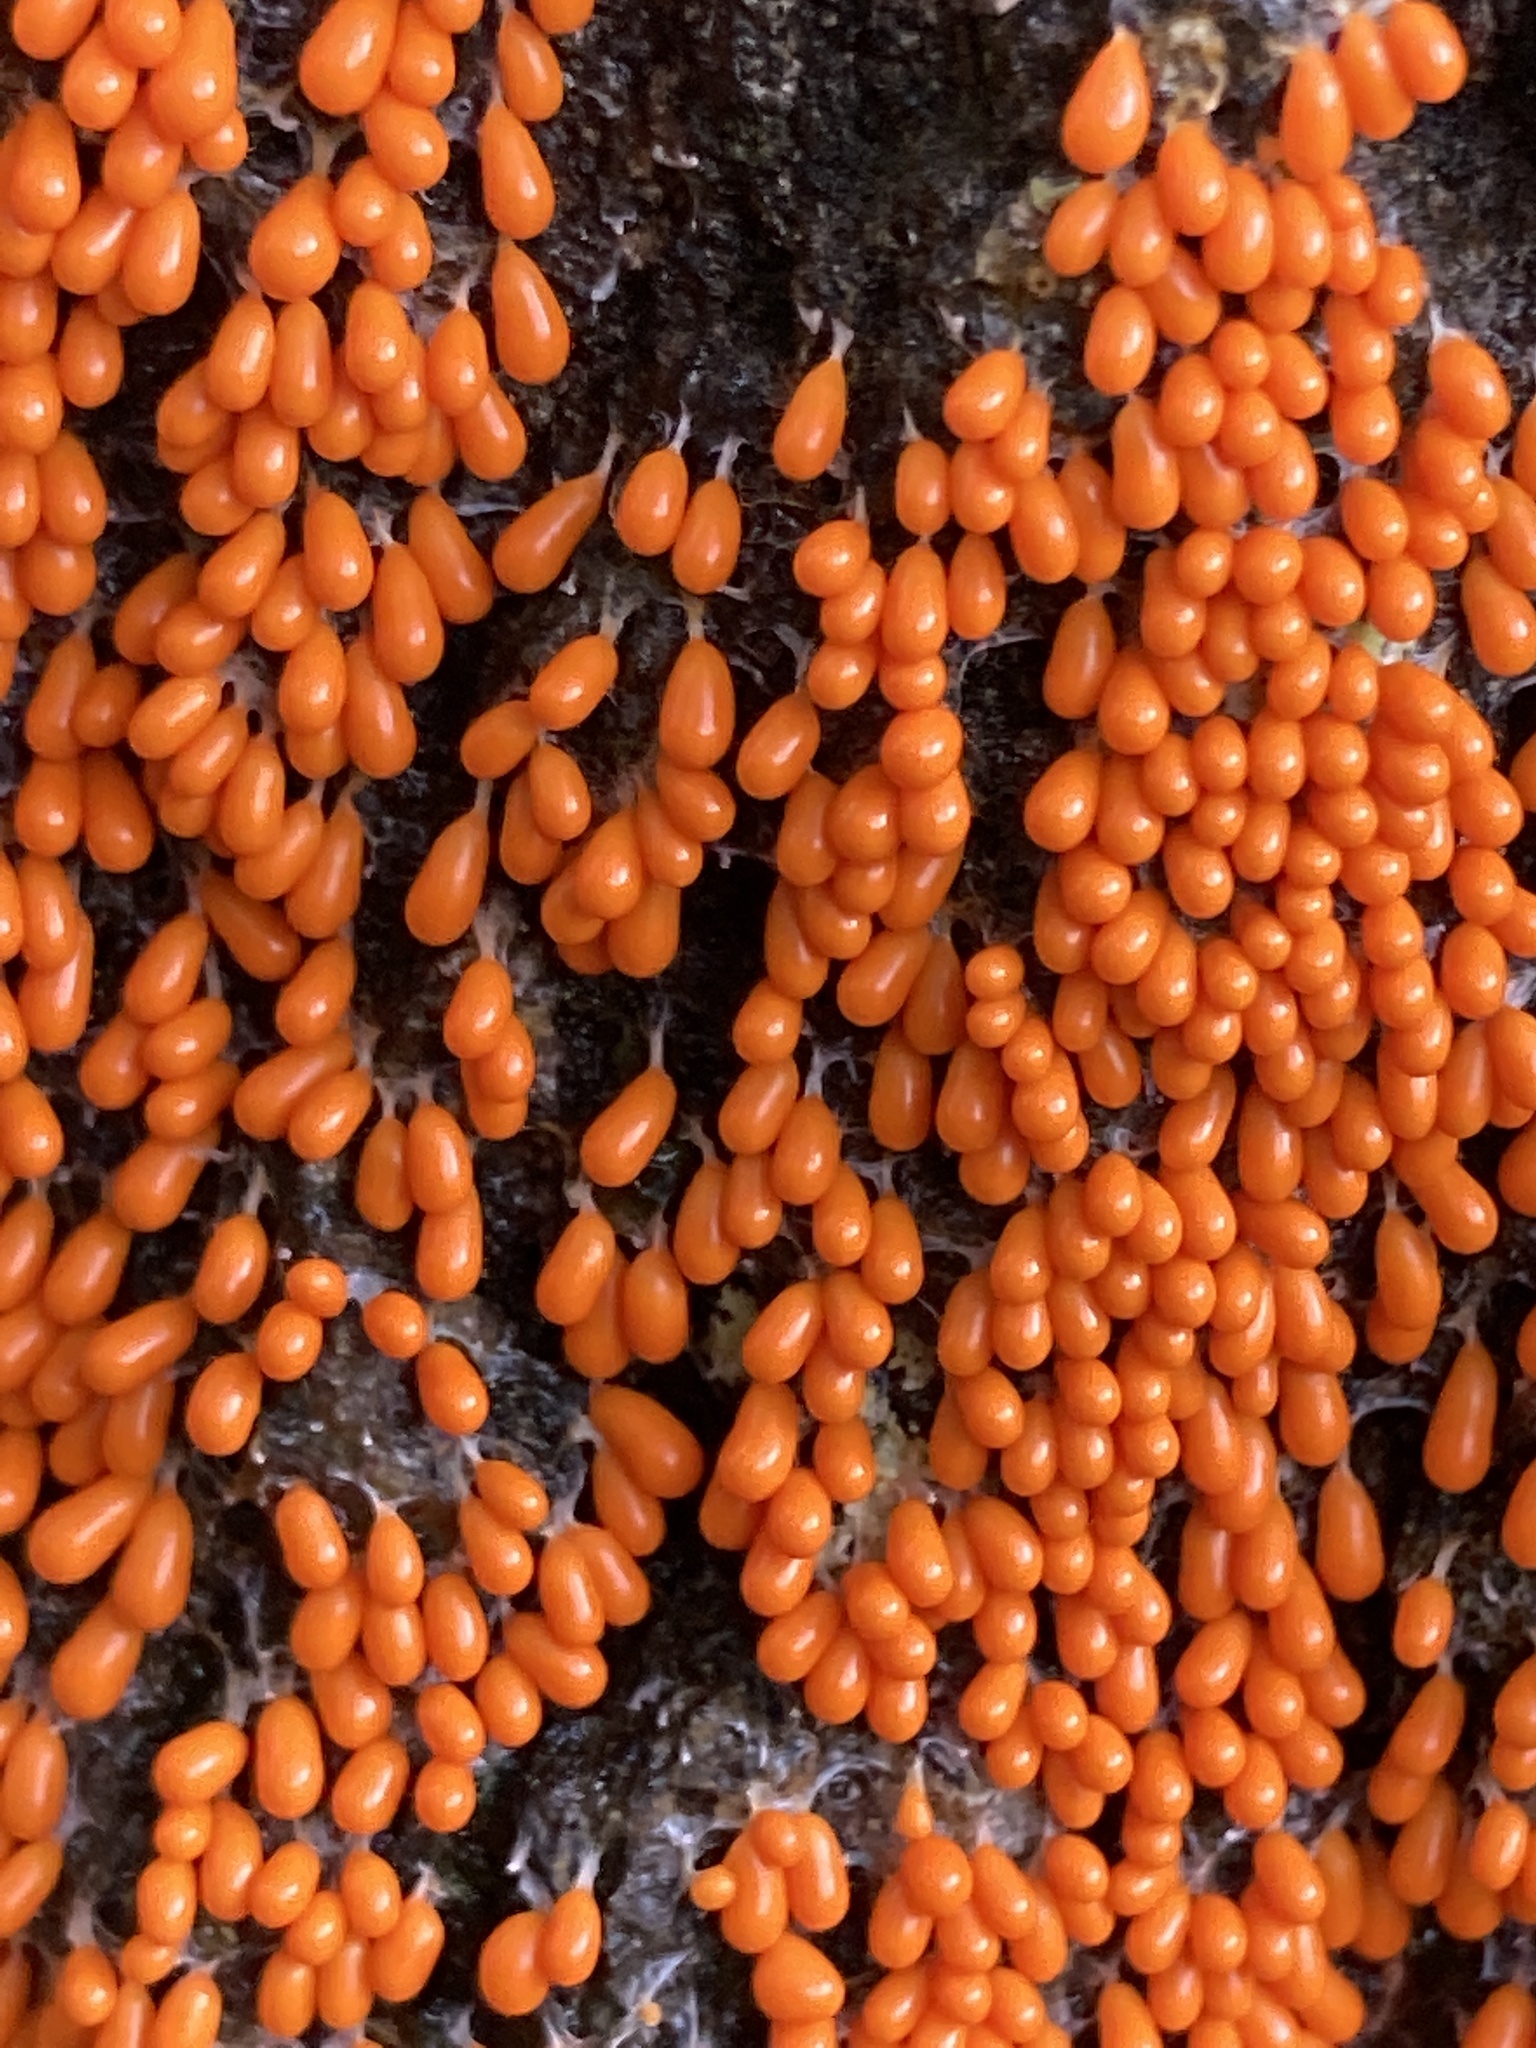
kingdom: Protozoa
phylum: Mycetozoa
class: Myxomycetes
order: Physarales
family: Physaraceae
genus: Leocarpus
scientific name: Leocarpus fragilis
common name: Insect-egg slime
